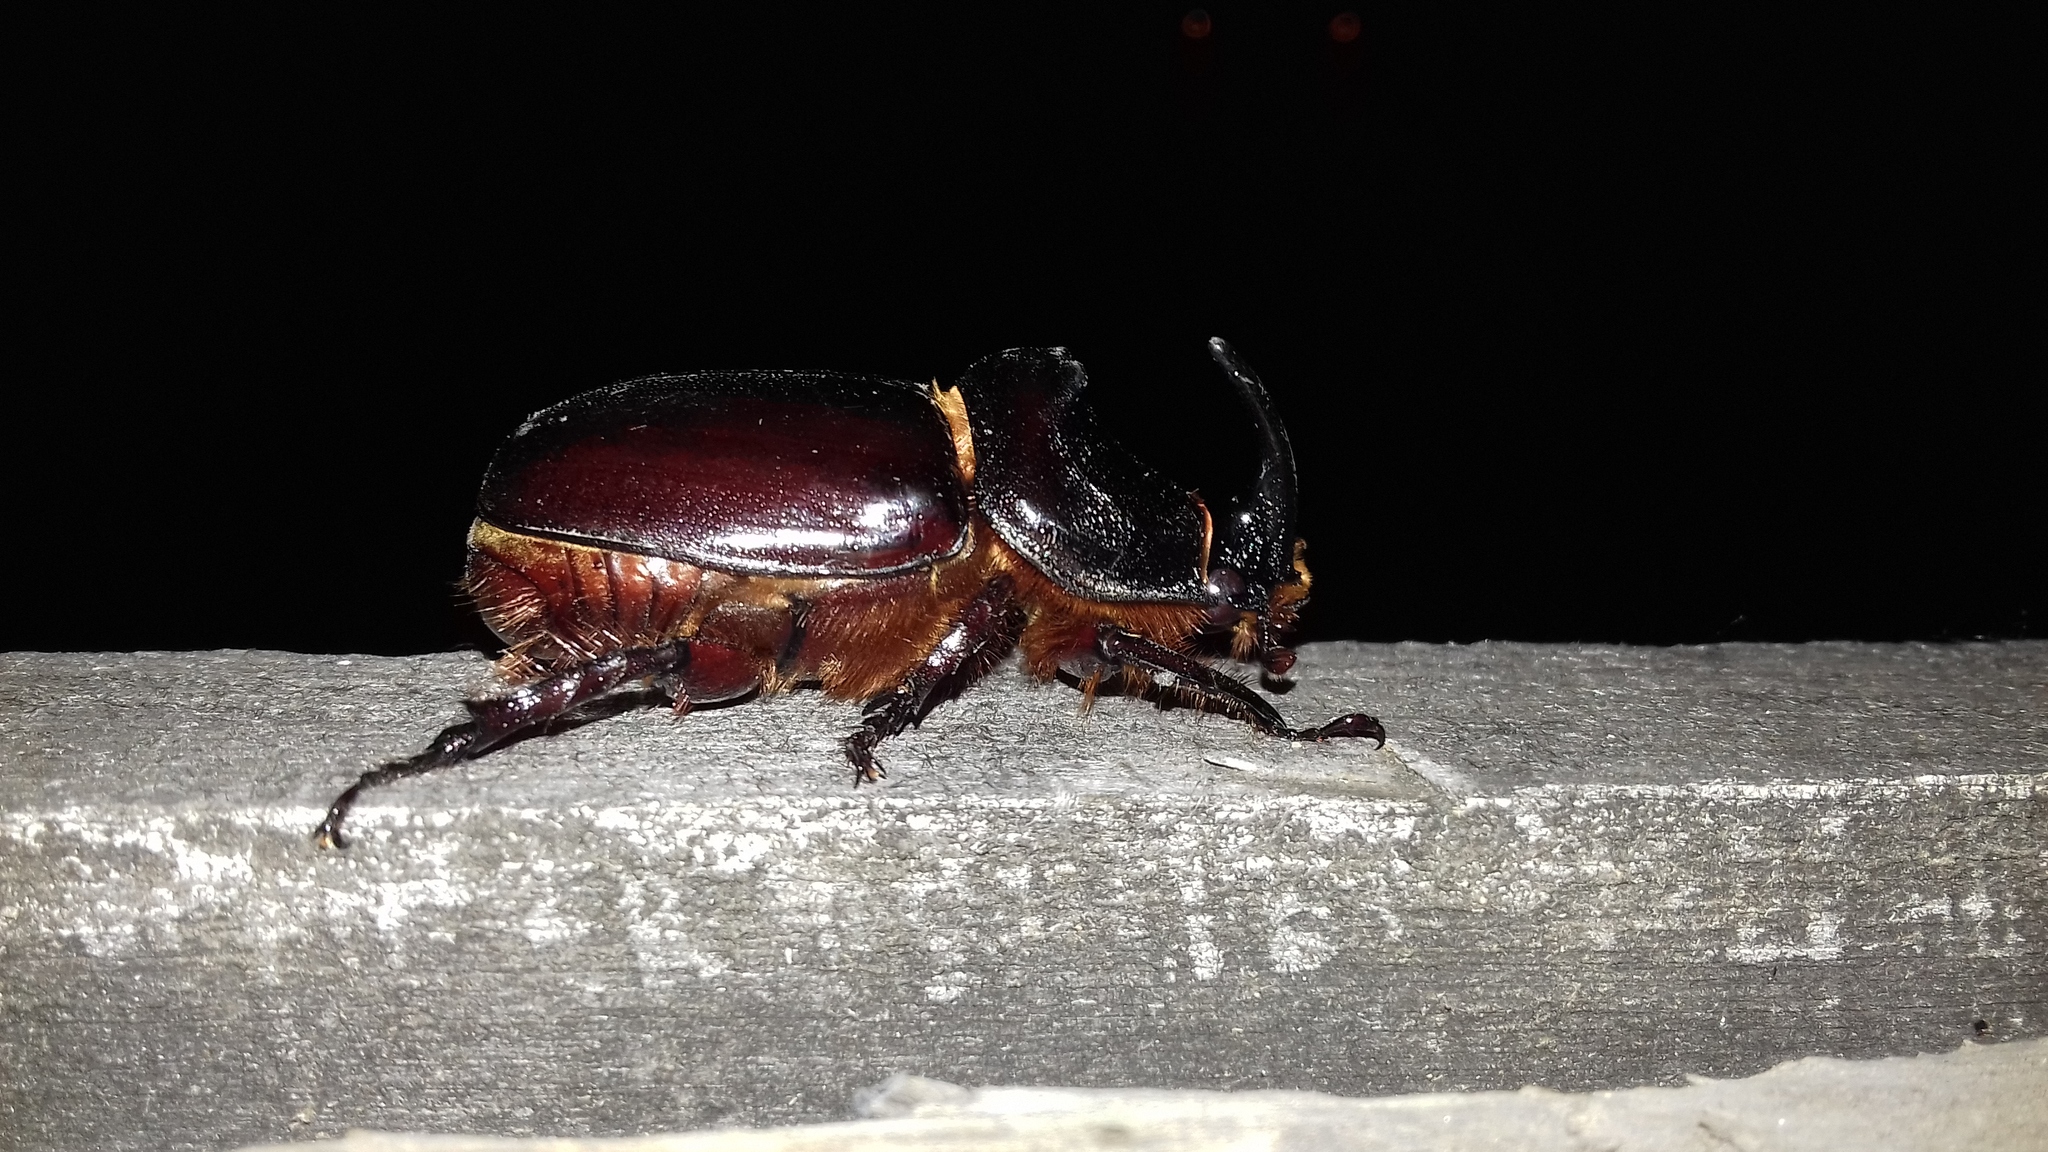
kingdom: Animalia
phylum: Arthropoda
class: Insecta
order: Coleoptera
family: Scarabaeidae
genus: Oryctes
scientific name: Oryctes nasicornis
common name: European rhinoceros beetle
